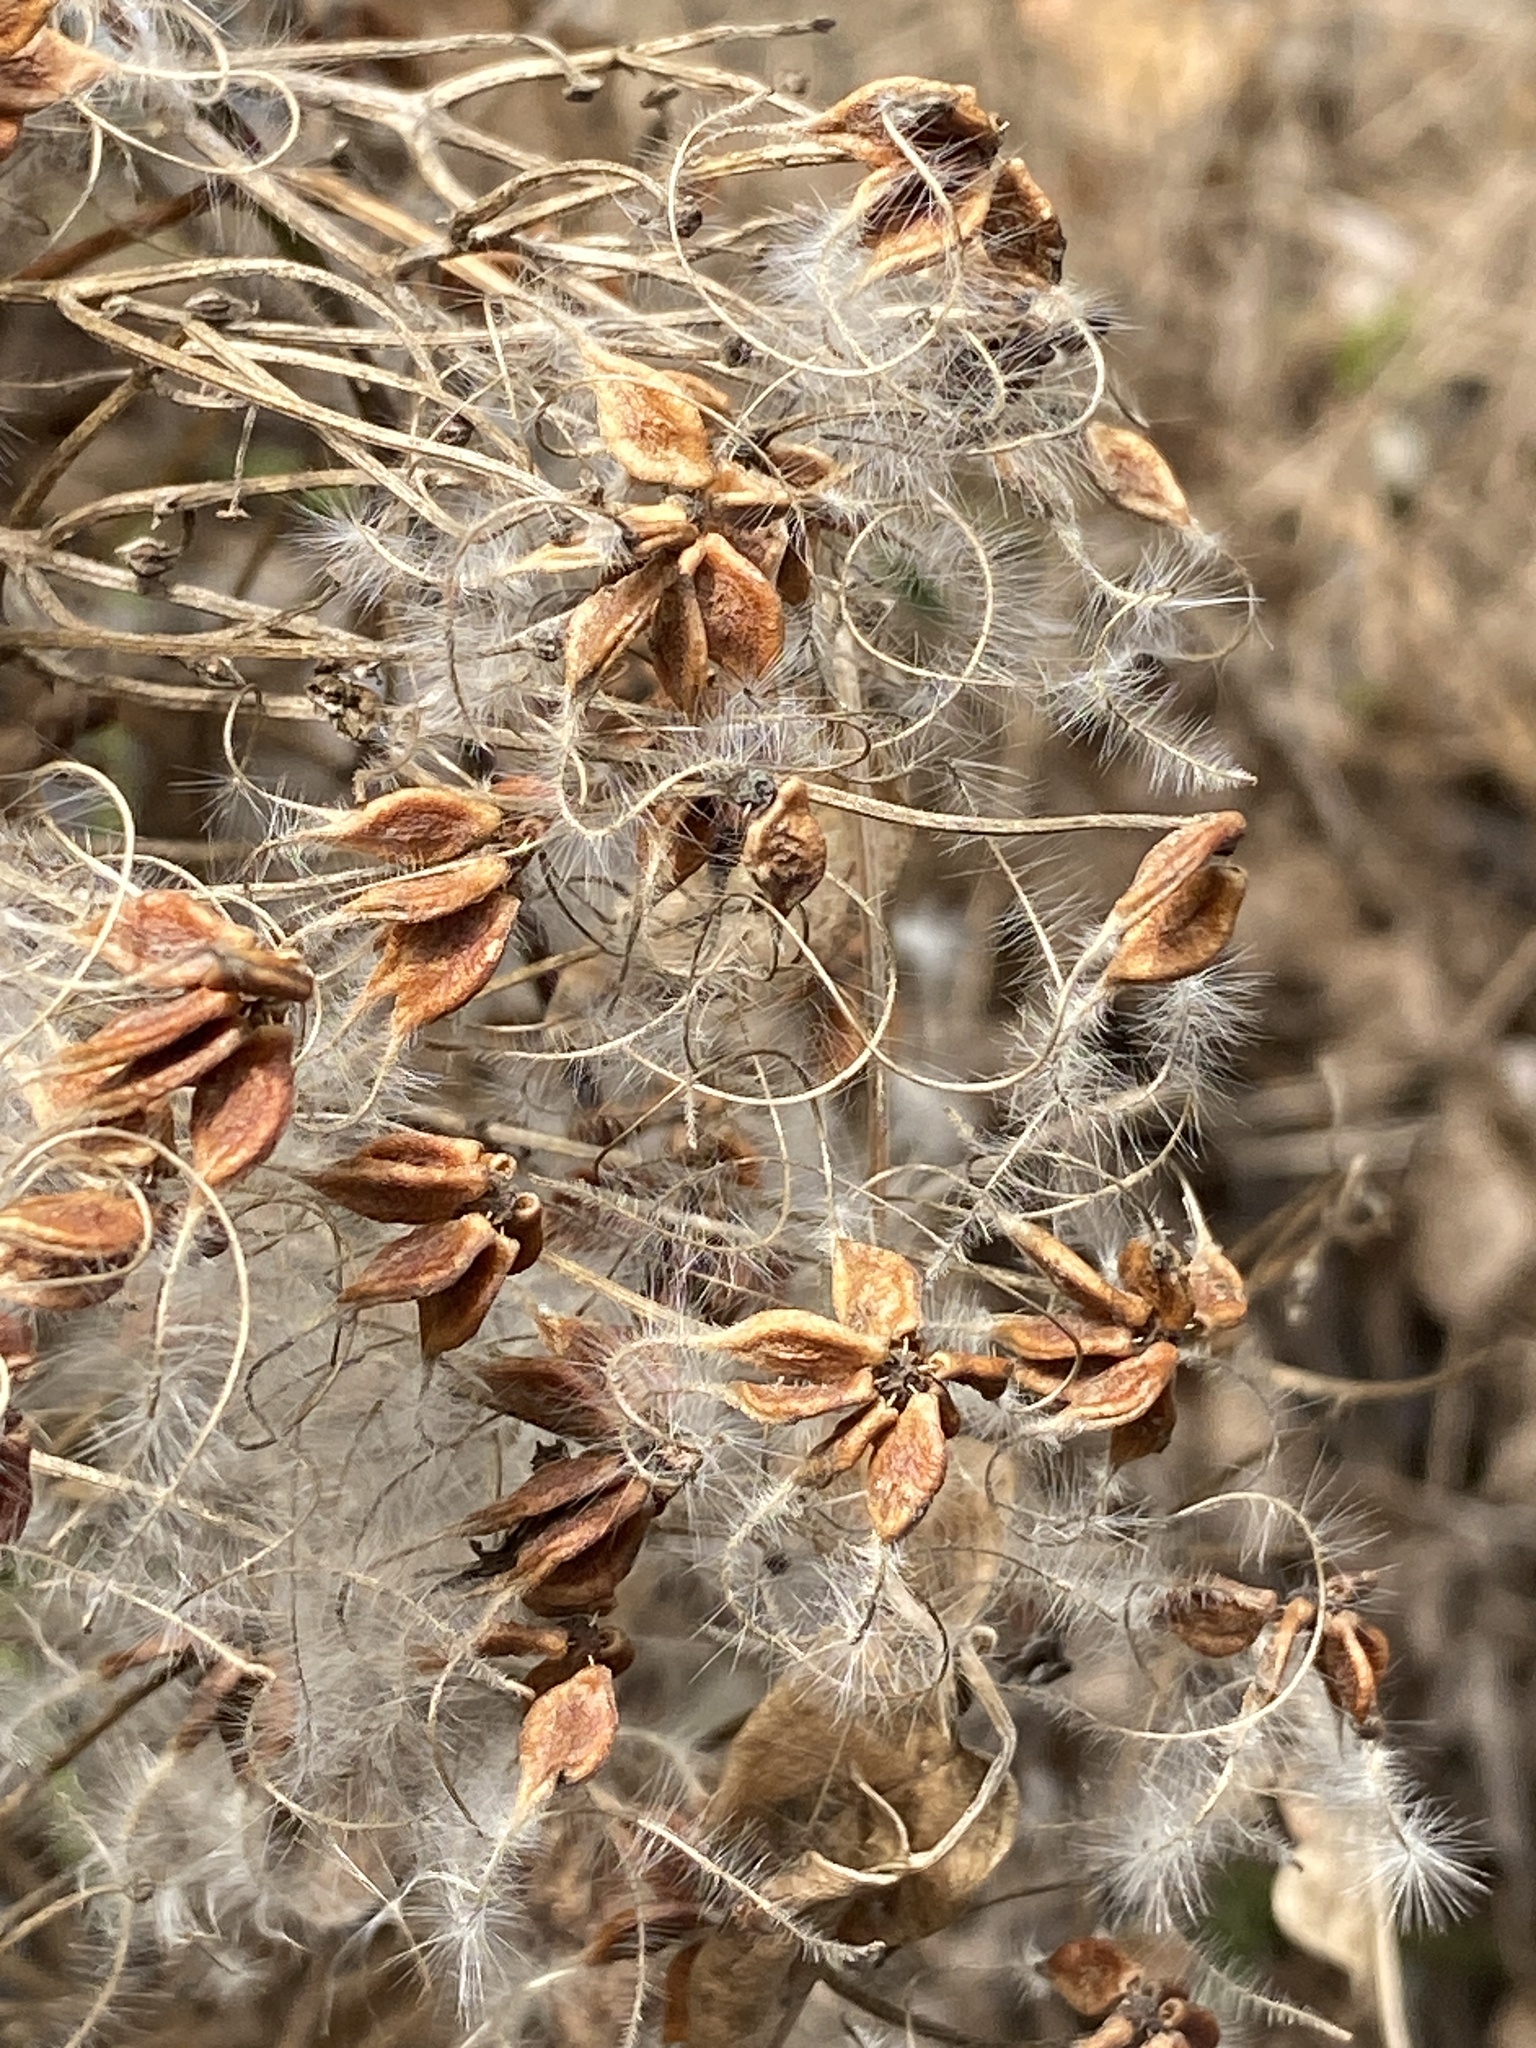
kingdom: Plantae
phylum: Tracheophyta
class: Magnoliopsida
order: Ranunculales
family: Ranunculaceae
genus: Clematis
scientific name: Clematis terniflora
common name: Sweet autumn clematis
